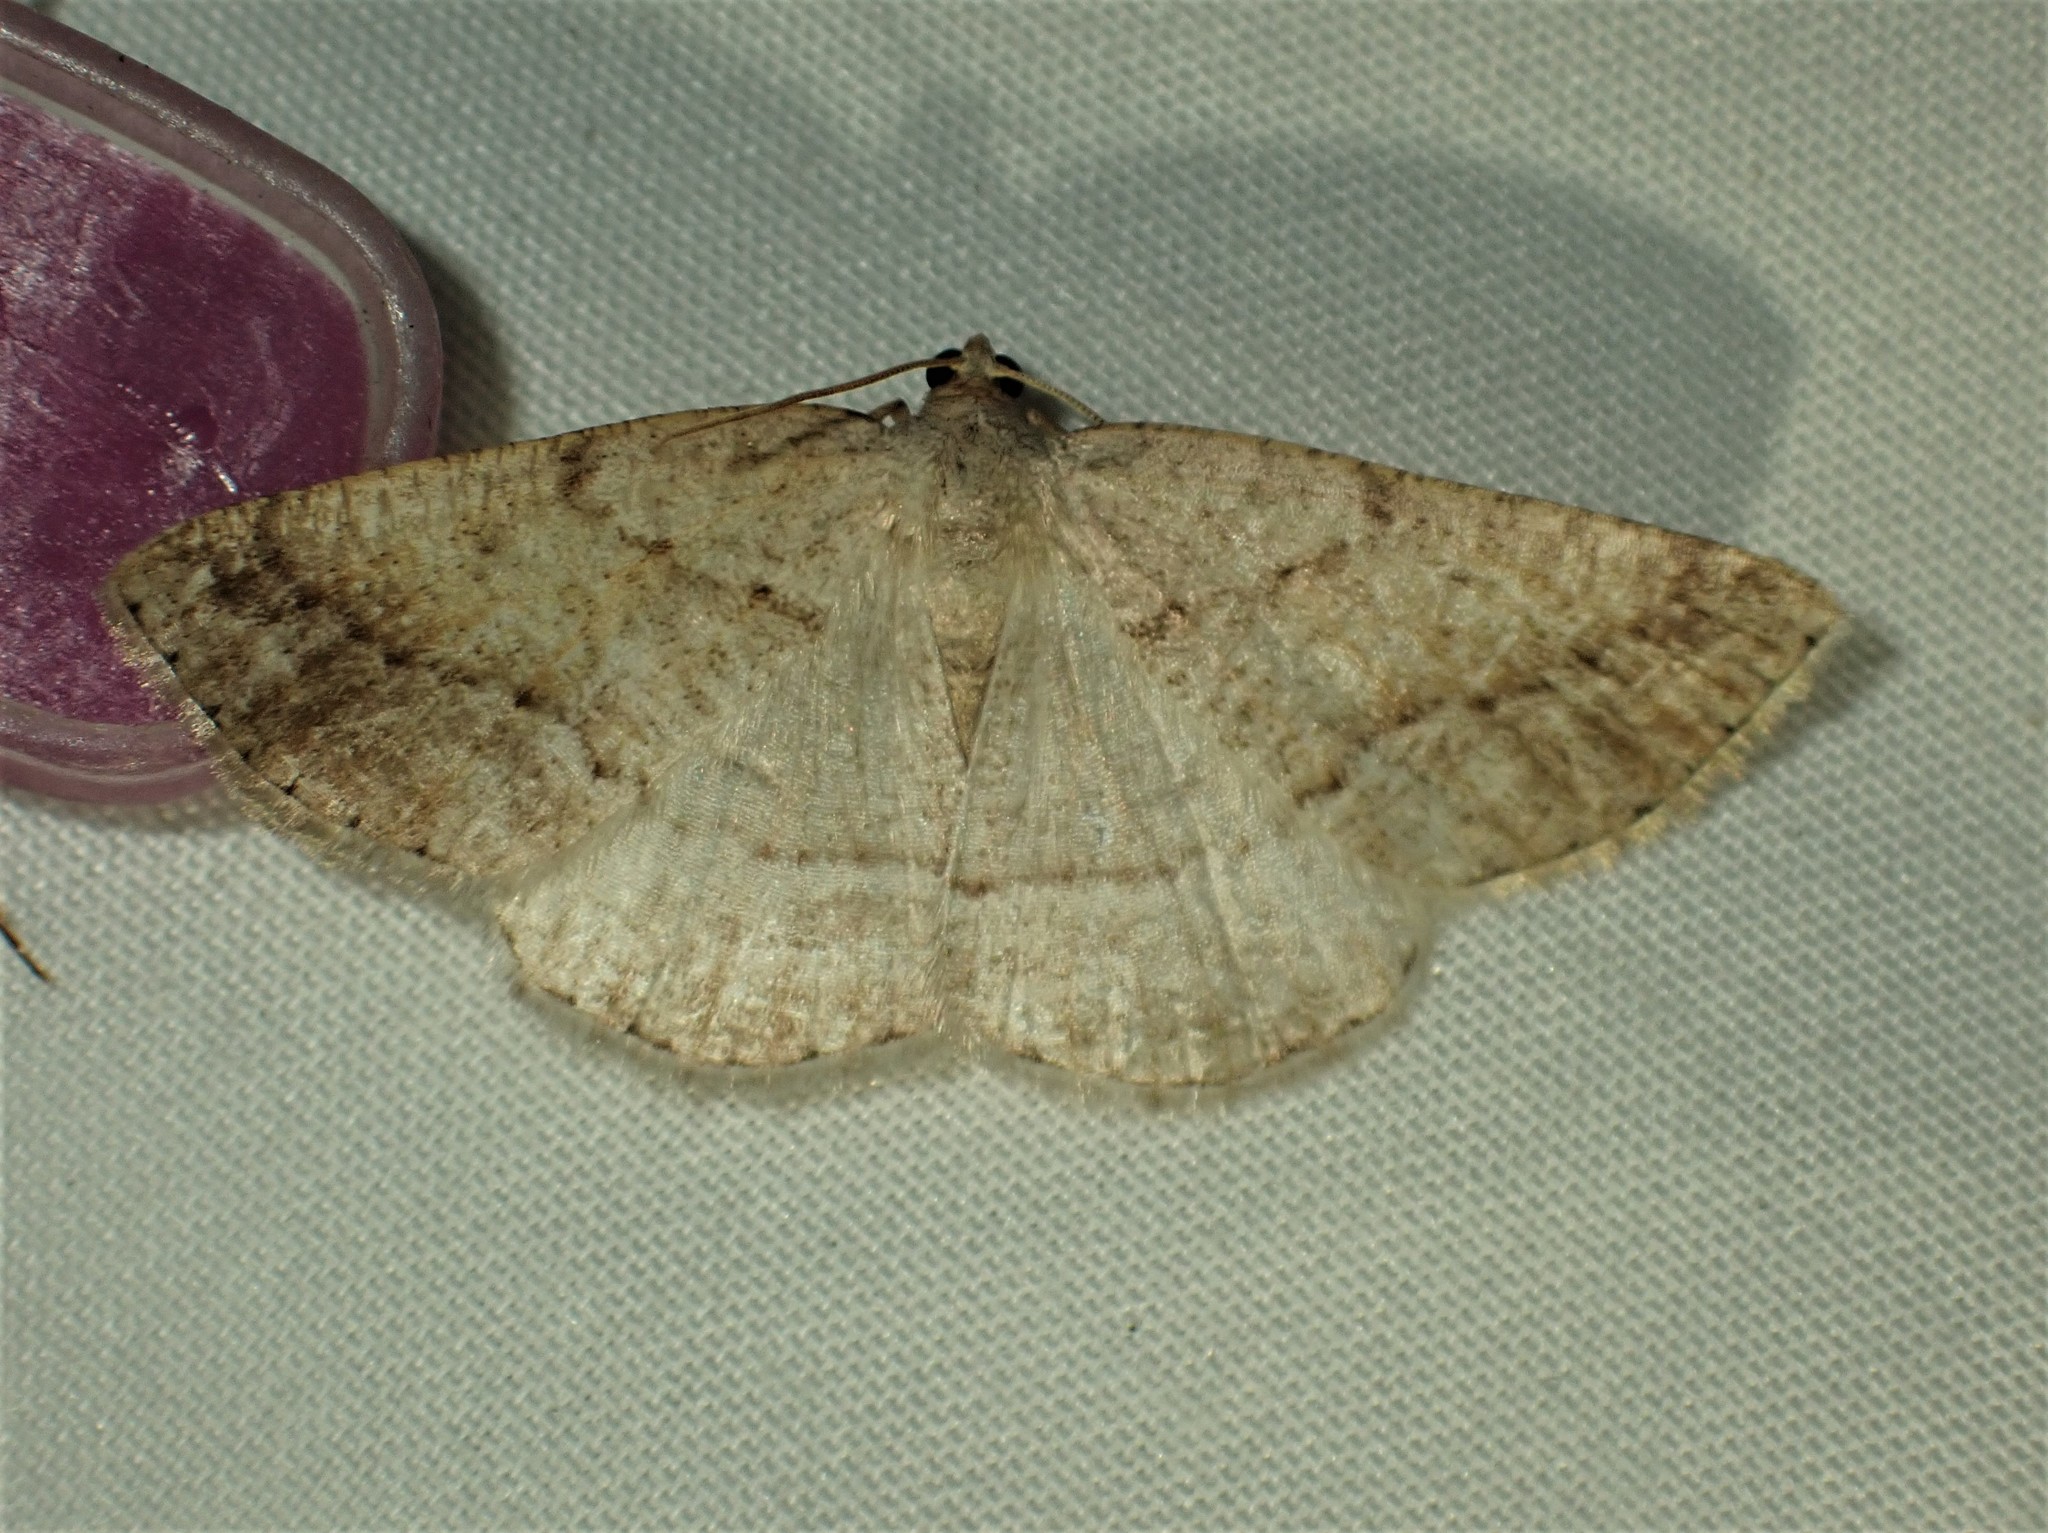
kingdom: Animalia
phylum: Arthropoda
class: Insecta
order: Lepidoptera
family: Geometridae
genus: Tacparia
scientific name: Tacparia detersata
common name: Pale alder moth
